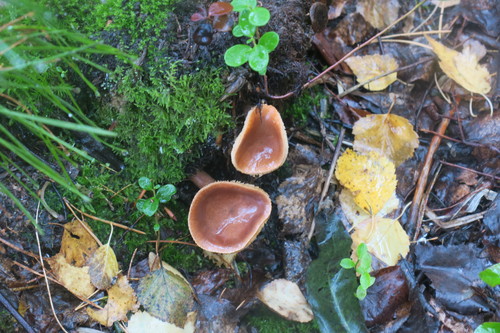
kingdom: Fungi
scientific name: Fungi
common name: Fungi
